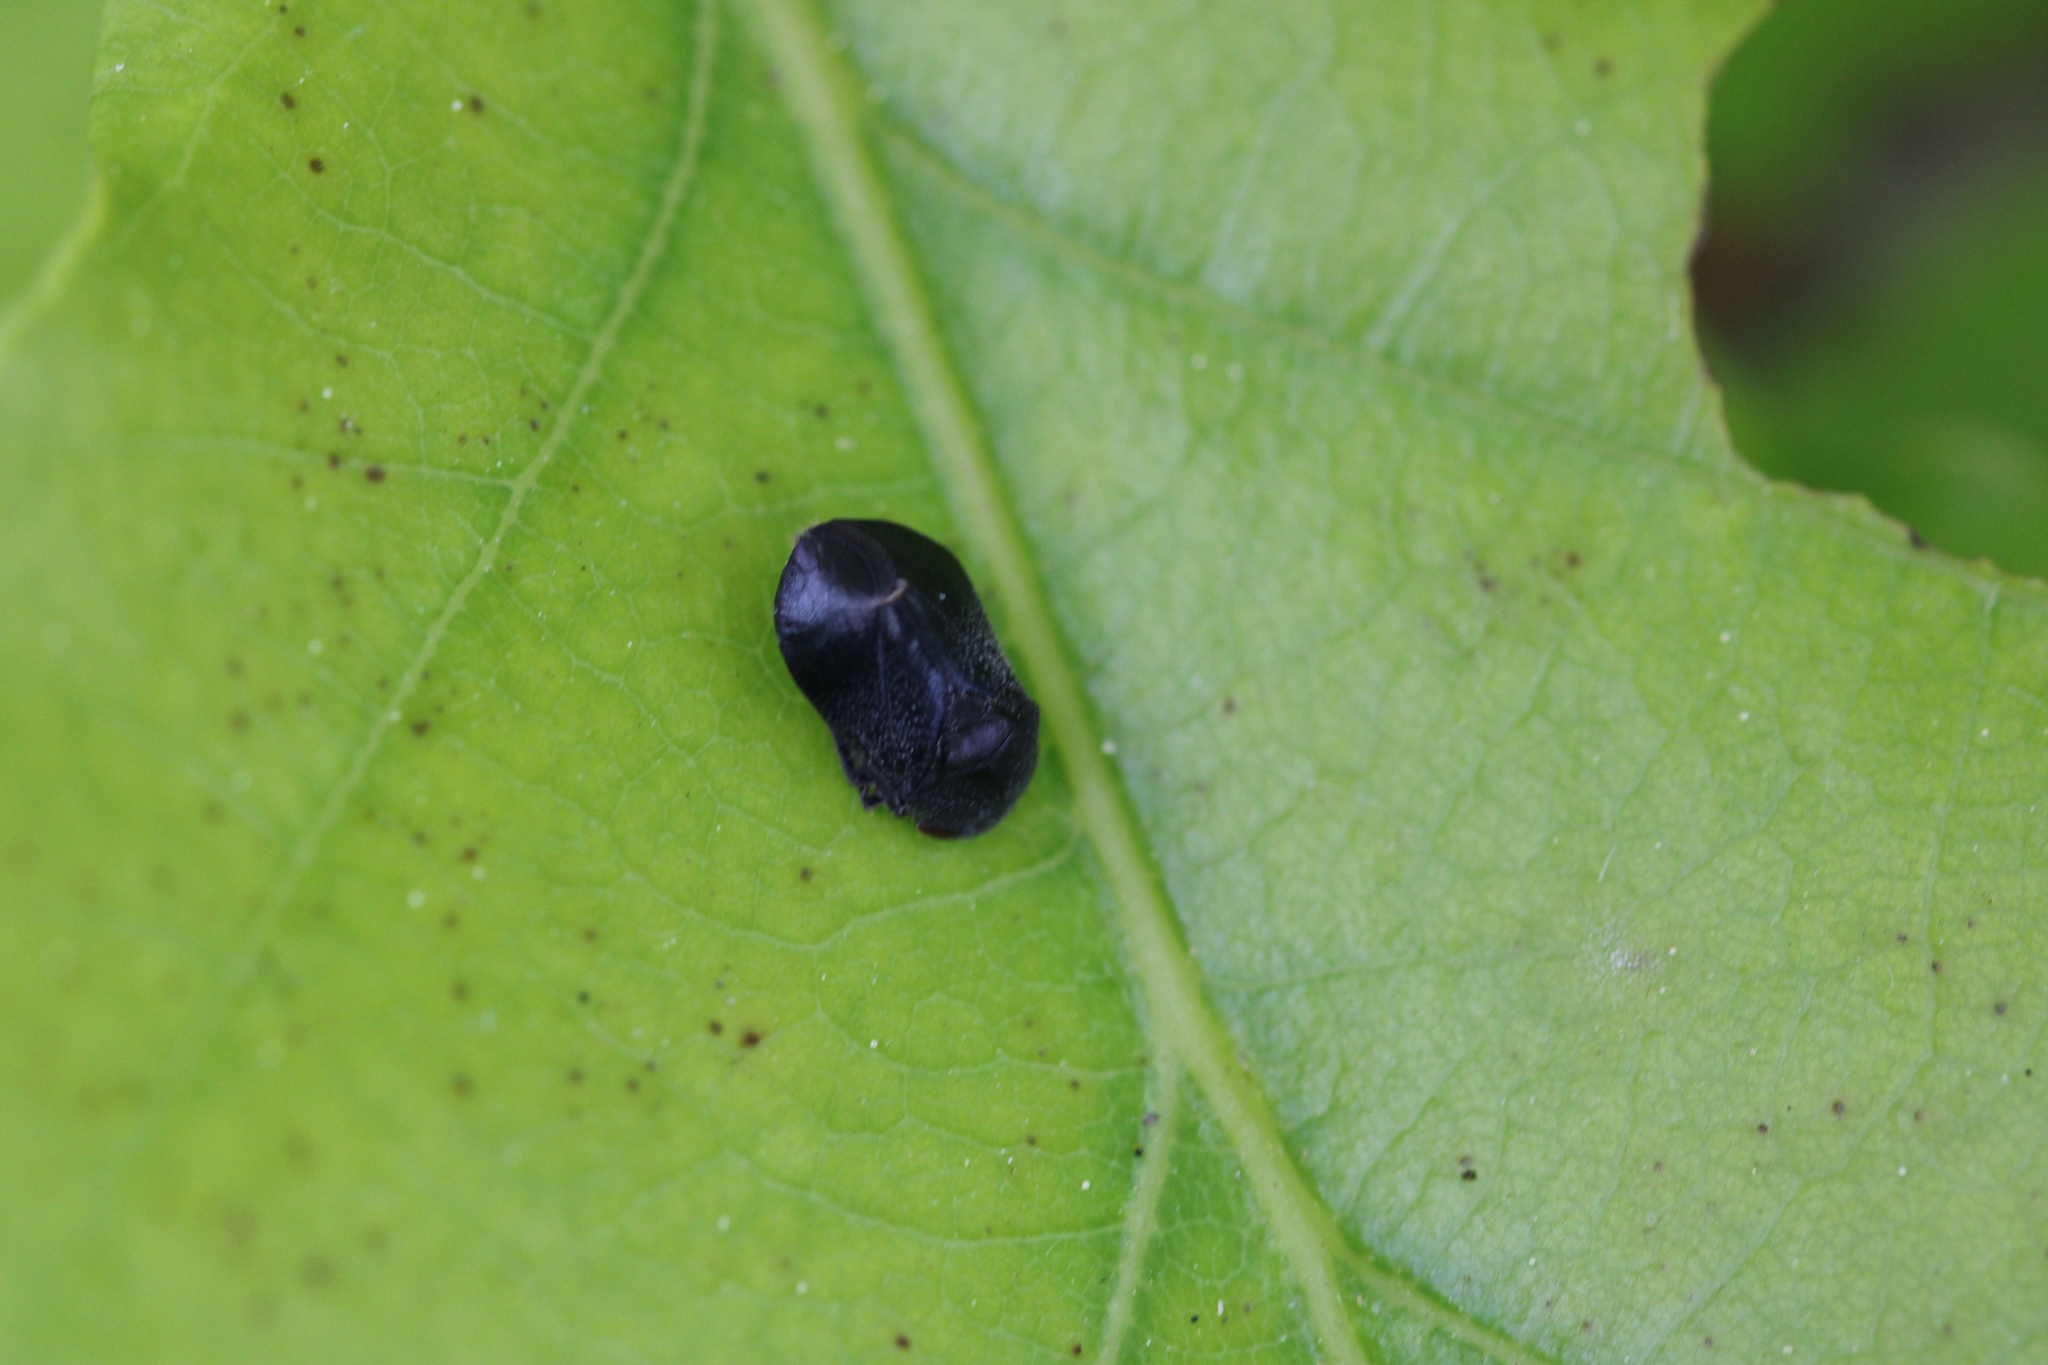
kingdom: Animalia
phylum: Arthropoda
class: Insecta
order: Hemiptera
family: Cicadellidae
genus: Penthimia
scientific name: Penthimia nigra
